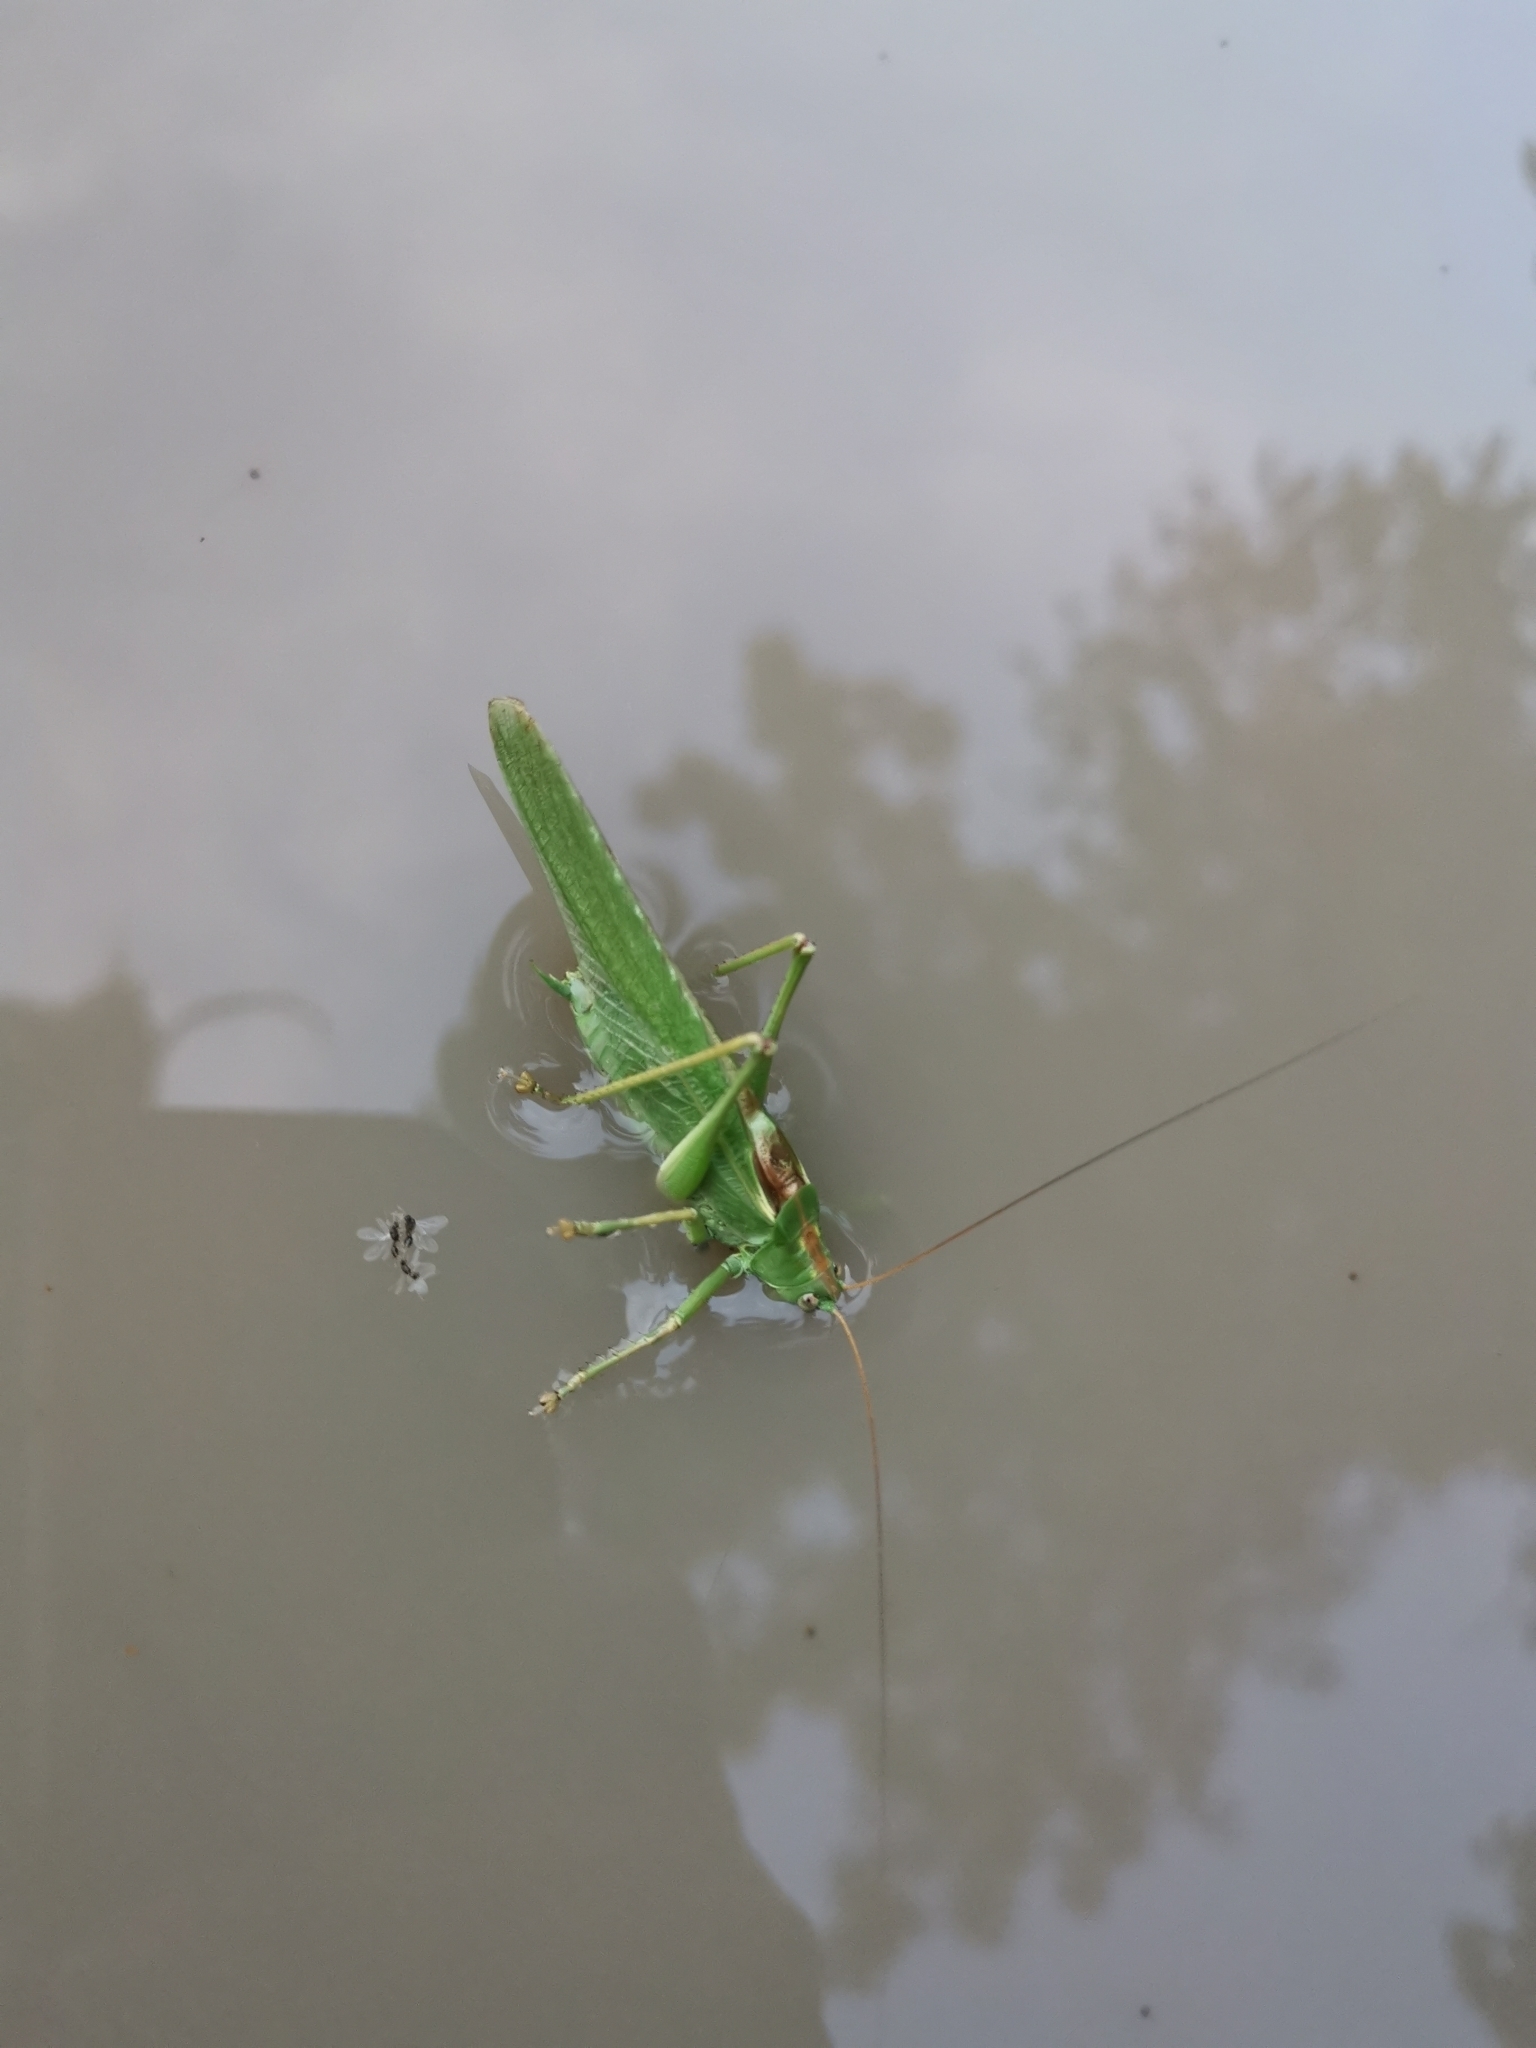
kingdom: Animalia
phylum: Arthropoda
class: Insecta
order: Orthoptera
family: Tettigoniidae
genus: Tettigonia
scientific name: Tettigonia viridissima
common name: Great green bush-cricket
